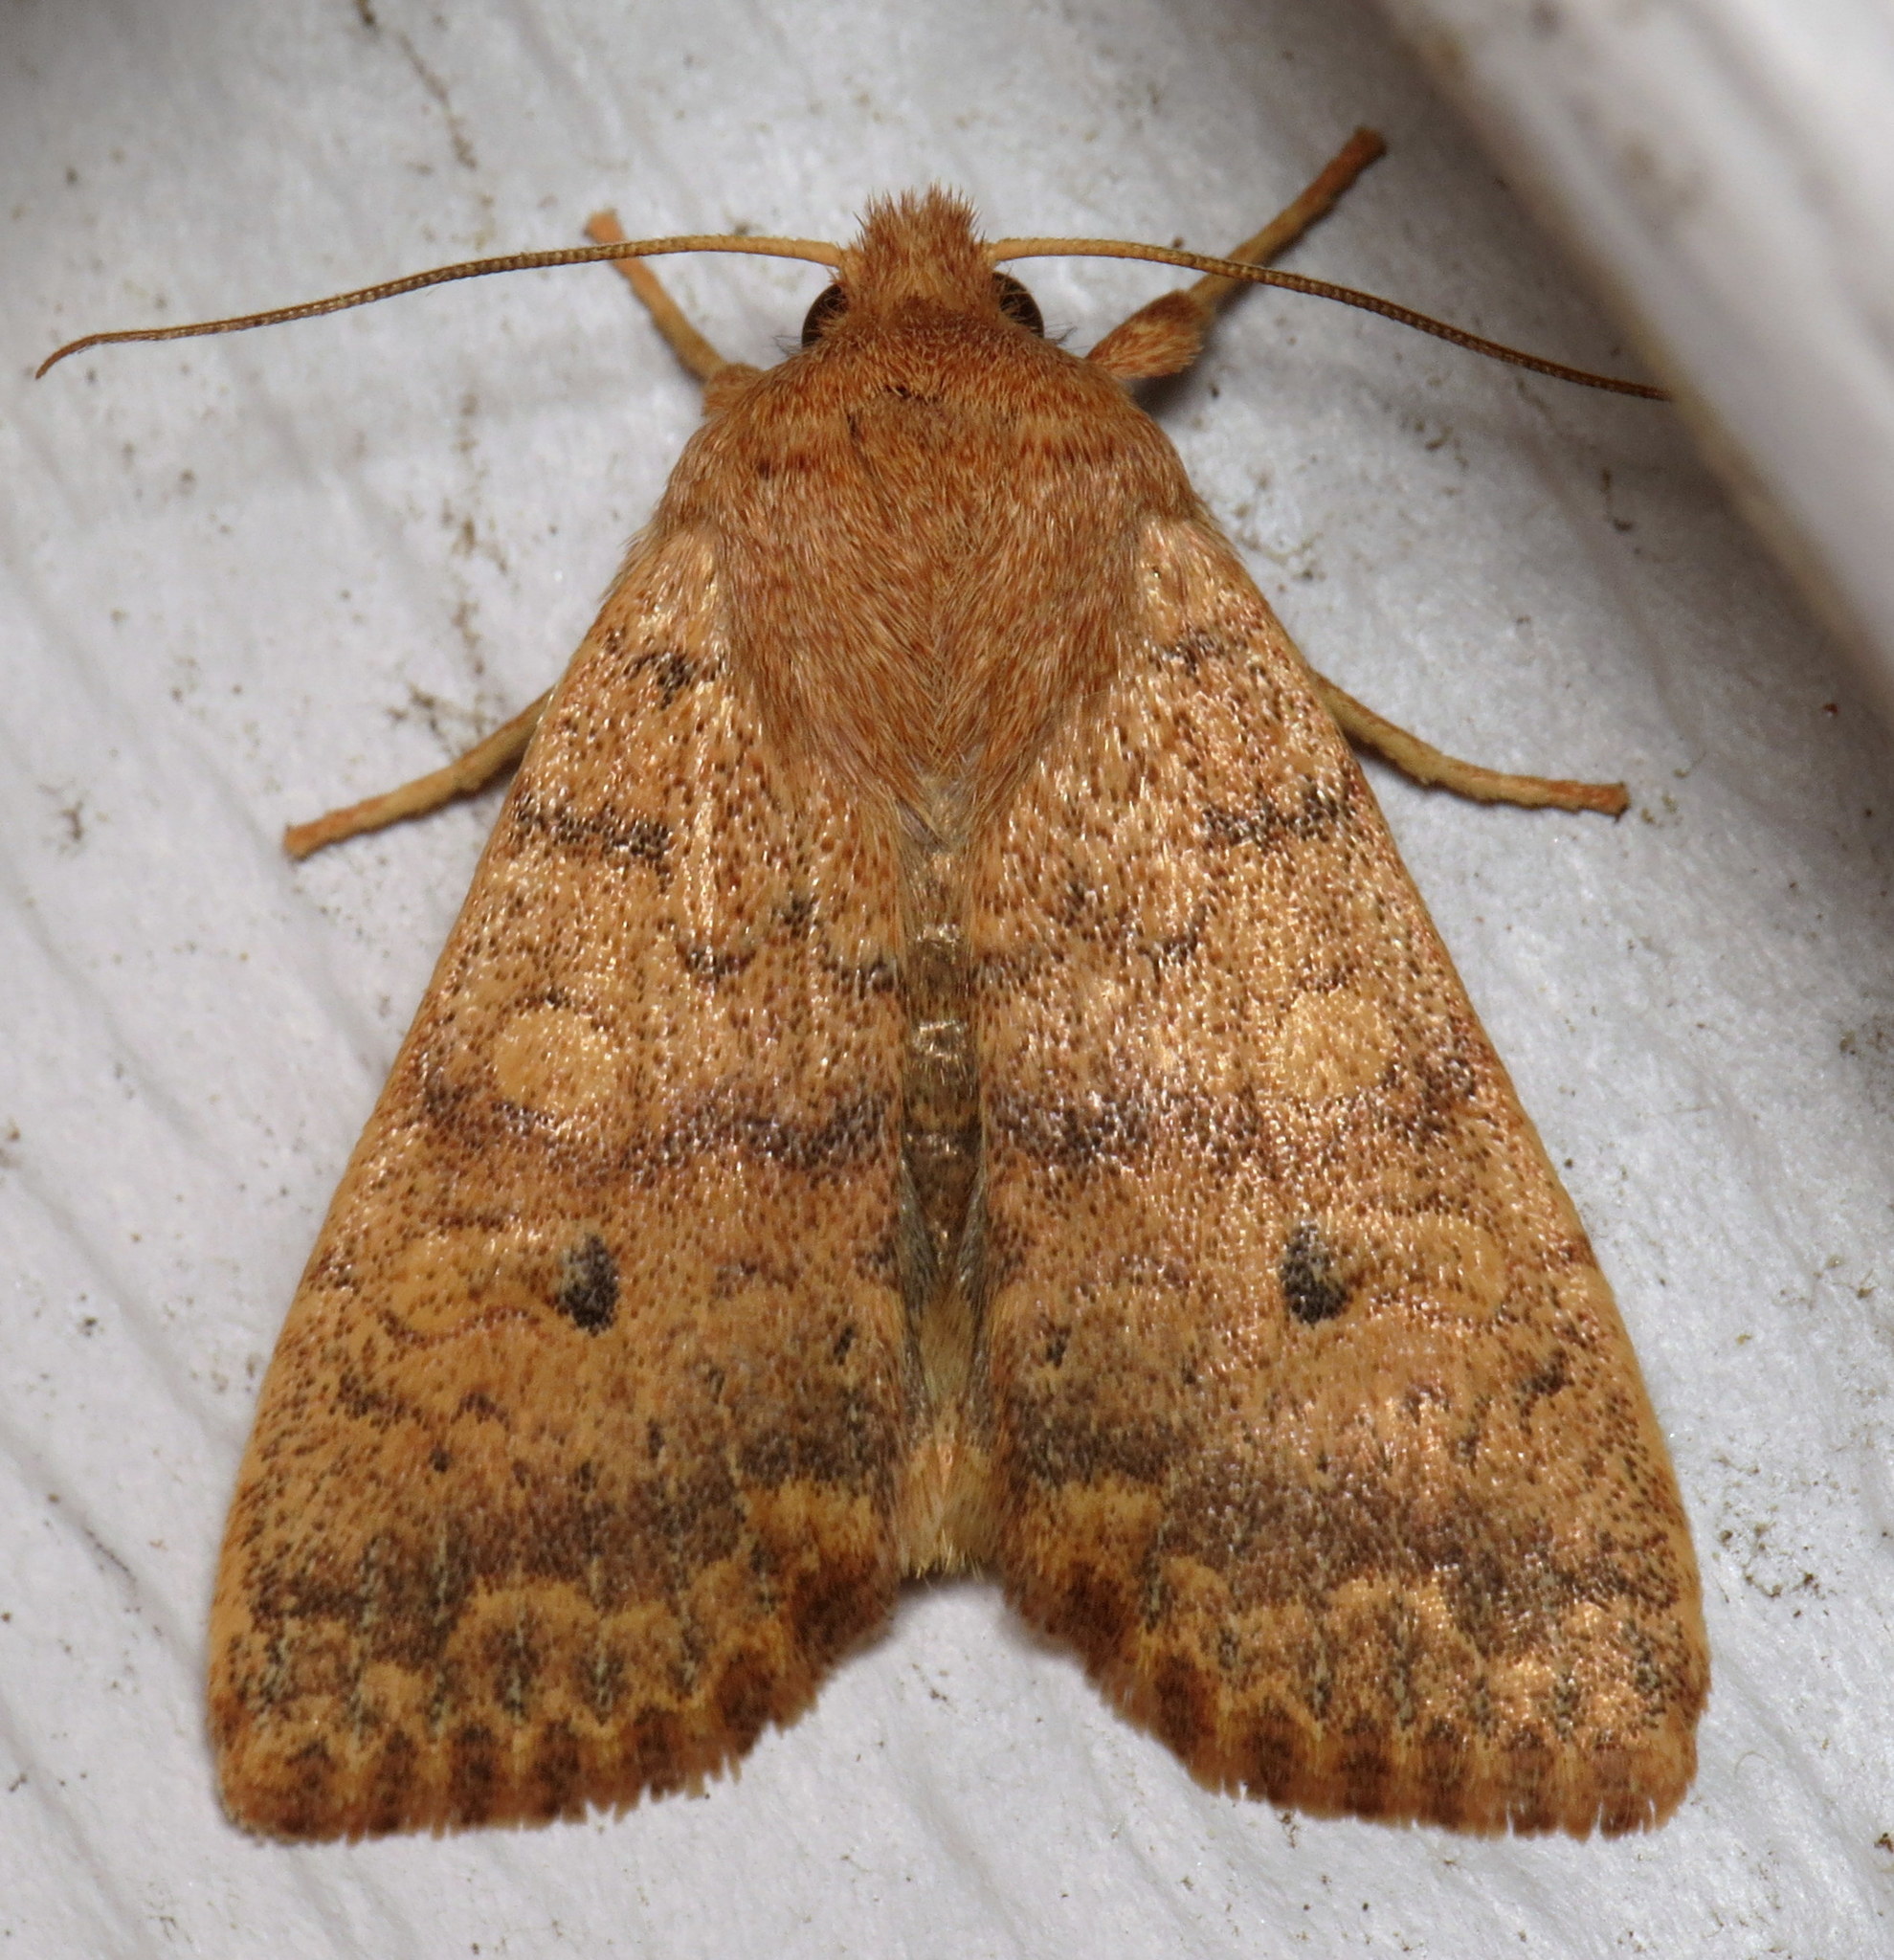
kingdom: Animalia
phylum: Arthropoda
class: Insecta
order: Lepidoptera
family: Noctuidae
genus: Agrochola
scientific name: Agrochola bicolorago
